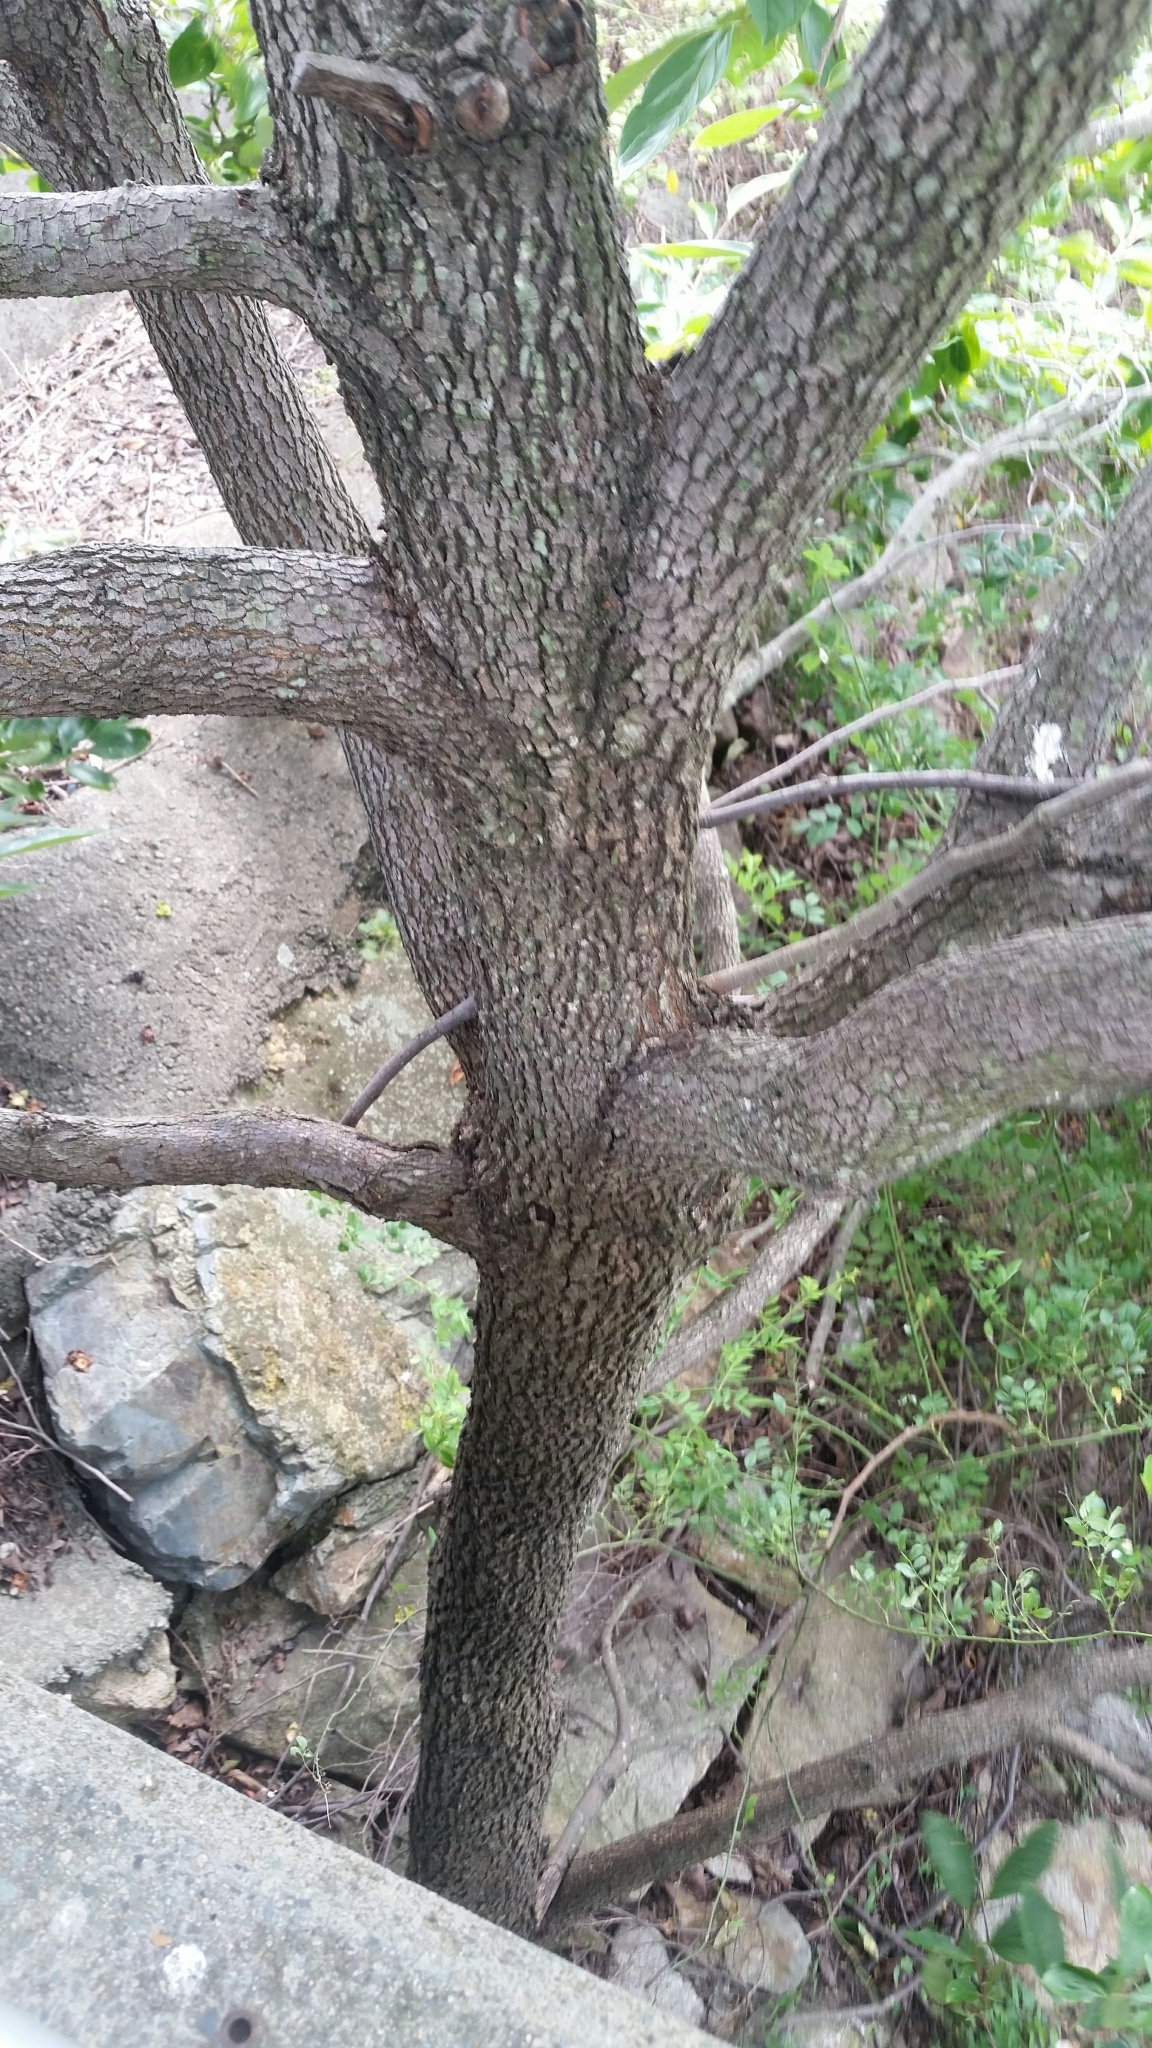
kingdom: Plantae
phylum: Tracheophyta
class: Magnoliopsida
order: Ericales
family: Ebenaceae
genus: Diospyros
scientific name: Diospyros kaki
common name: Persimmon
